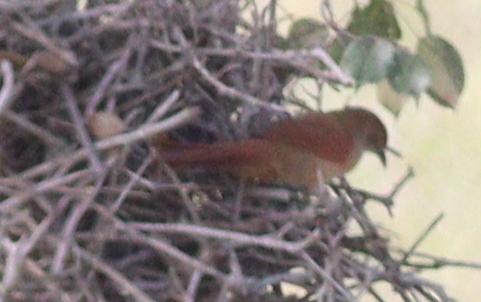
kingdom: Animalia
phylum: Chordata
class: Aves
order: Passeriformes
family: Furnariidae
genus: Phacellodomus
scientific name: Phacellodomus ruber
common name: Greater thornbird
